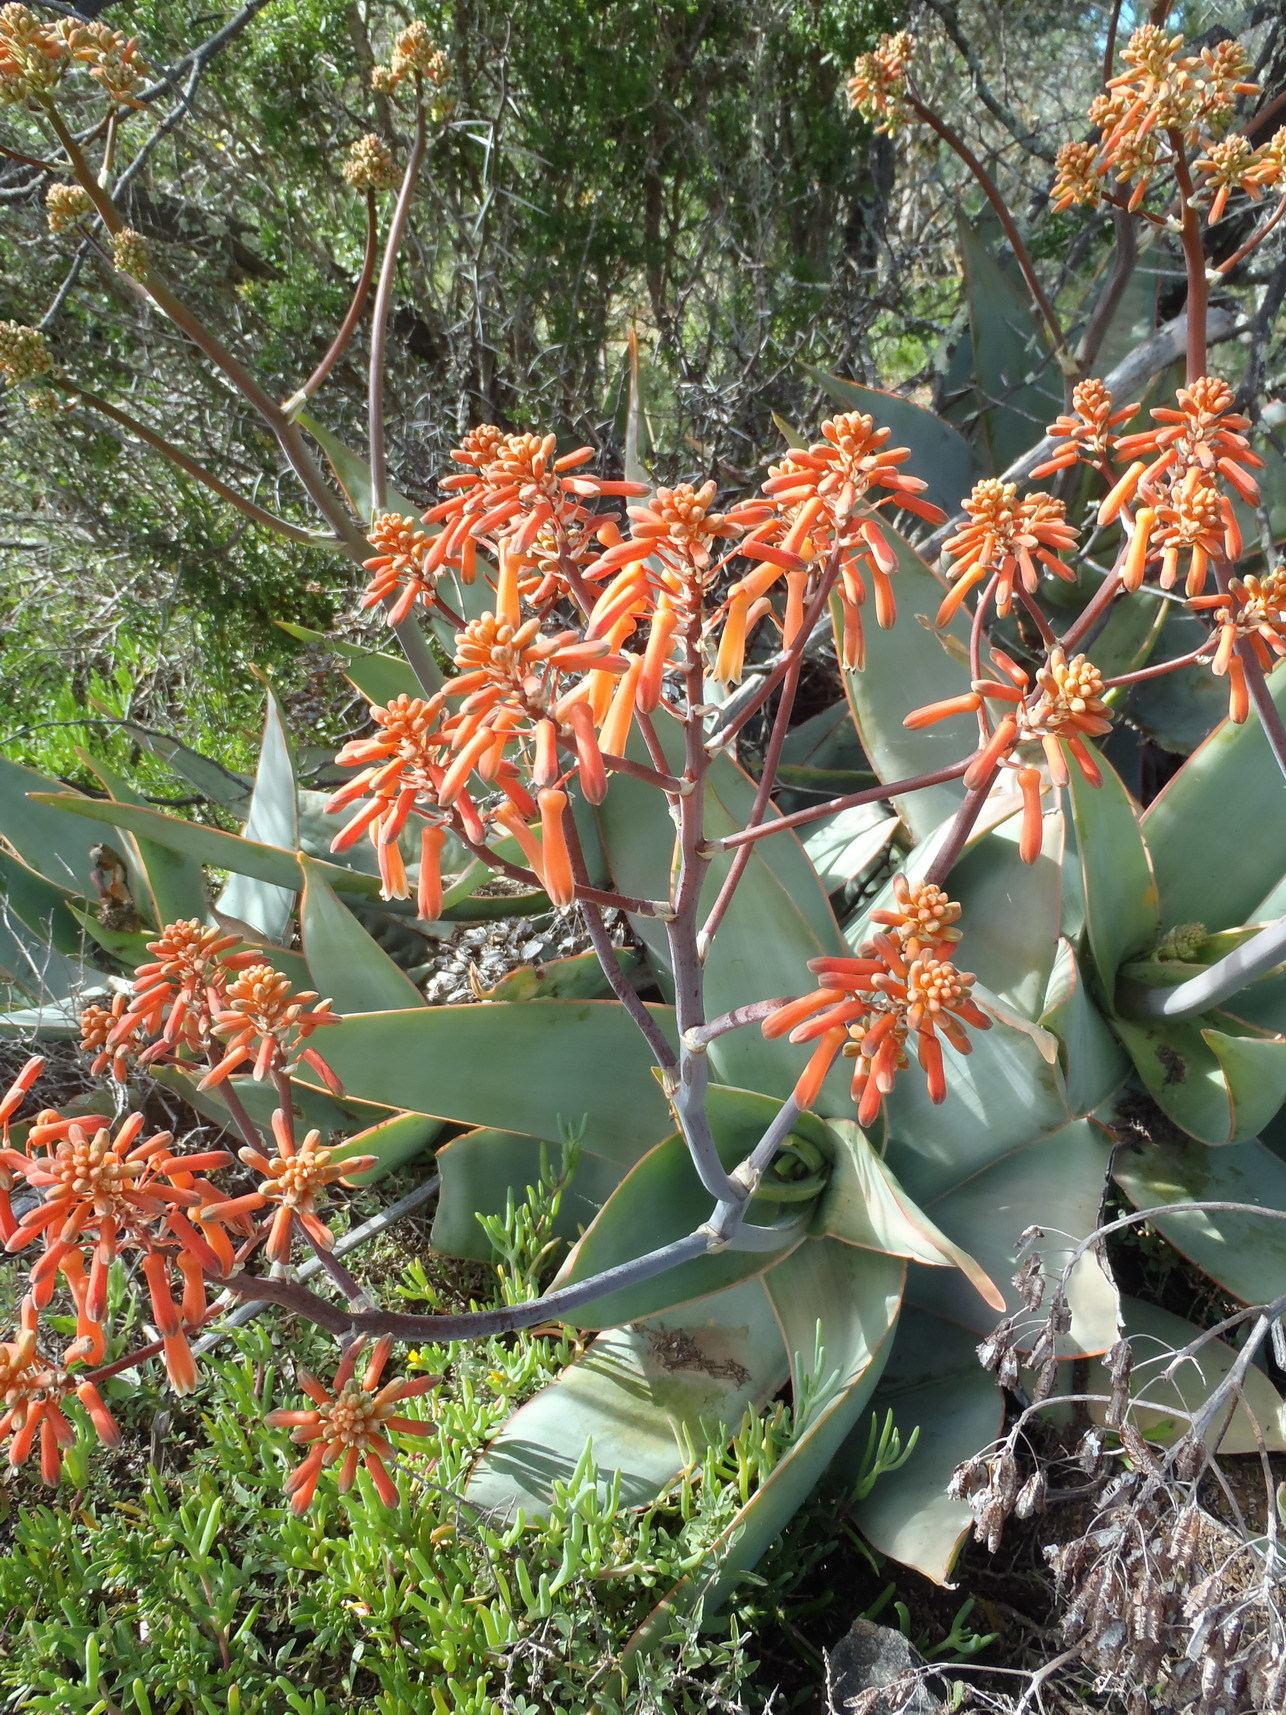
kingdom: Plantae
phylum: Tracheophyta
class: Liliopsida
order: Asparagales
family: Asphodelaceae
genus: Aloe
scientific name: Aloe striata
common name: Coral aloe
